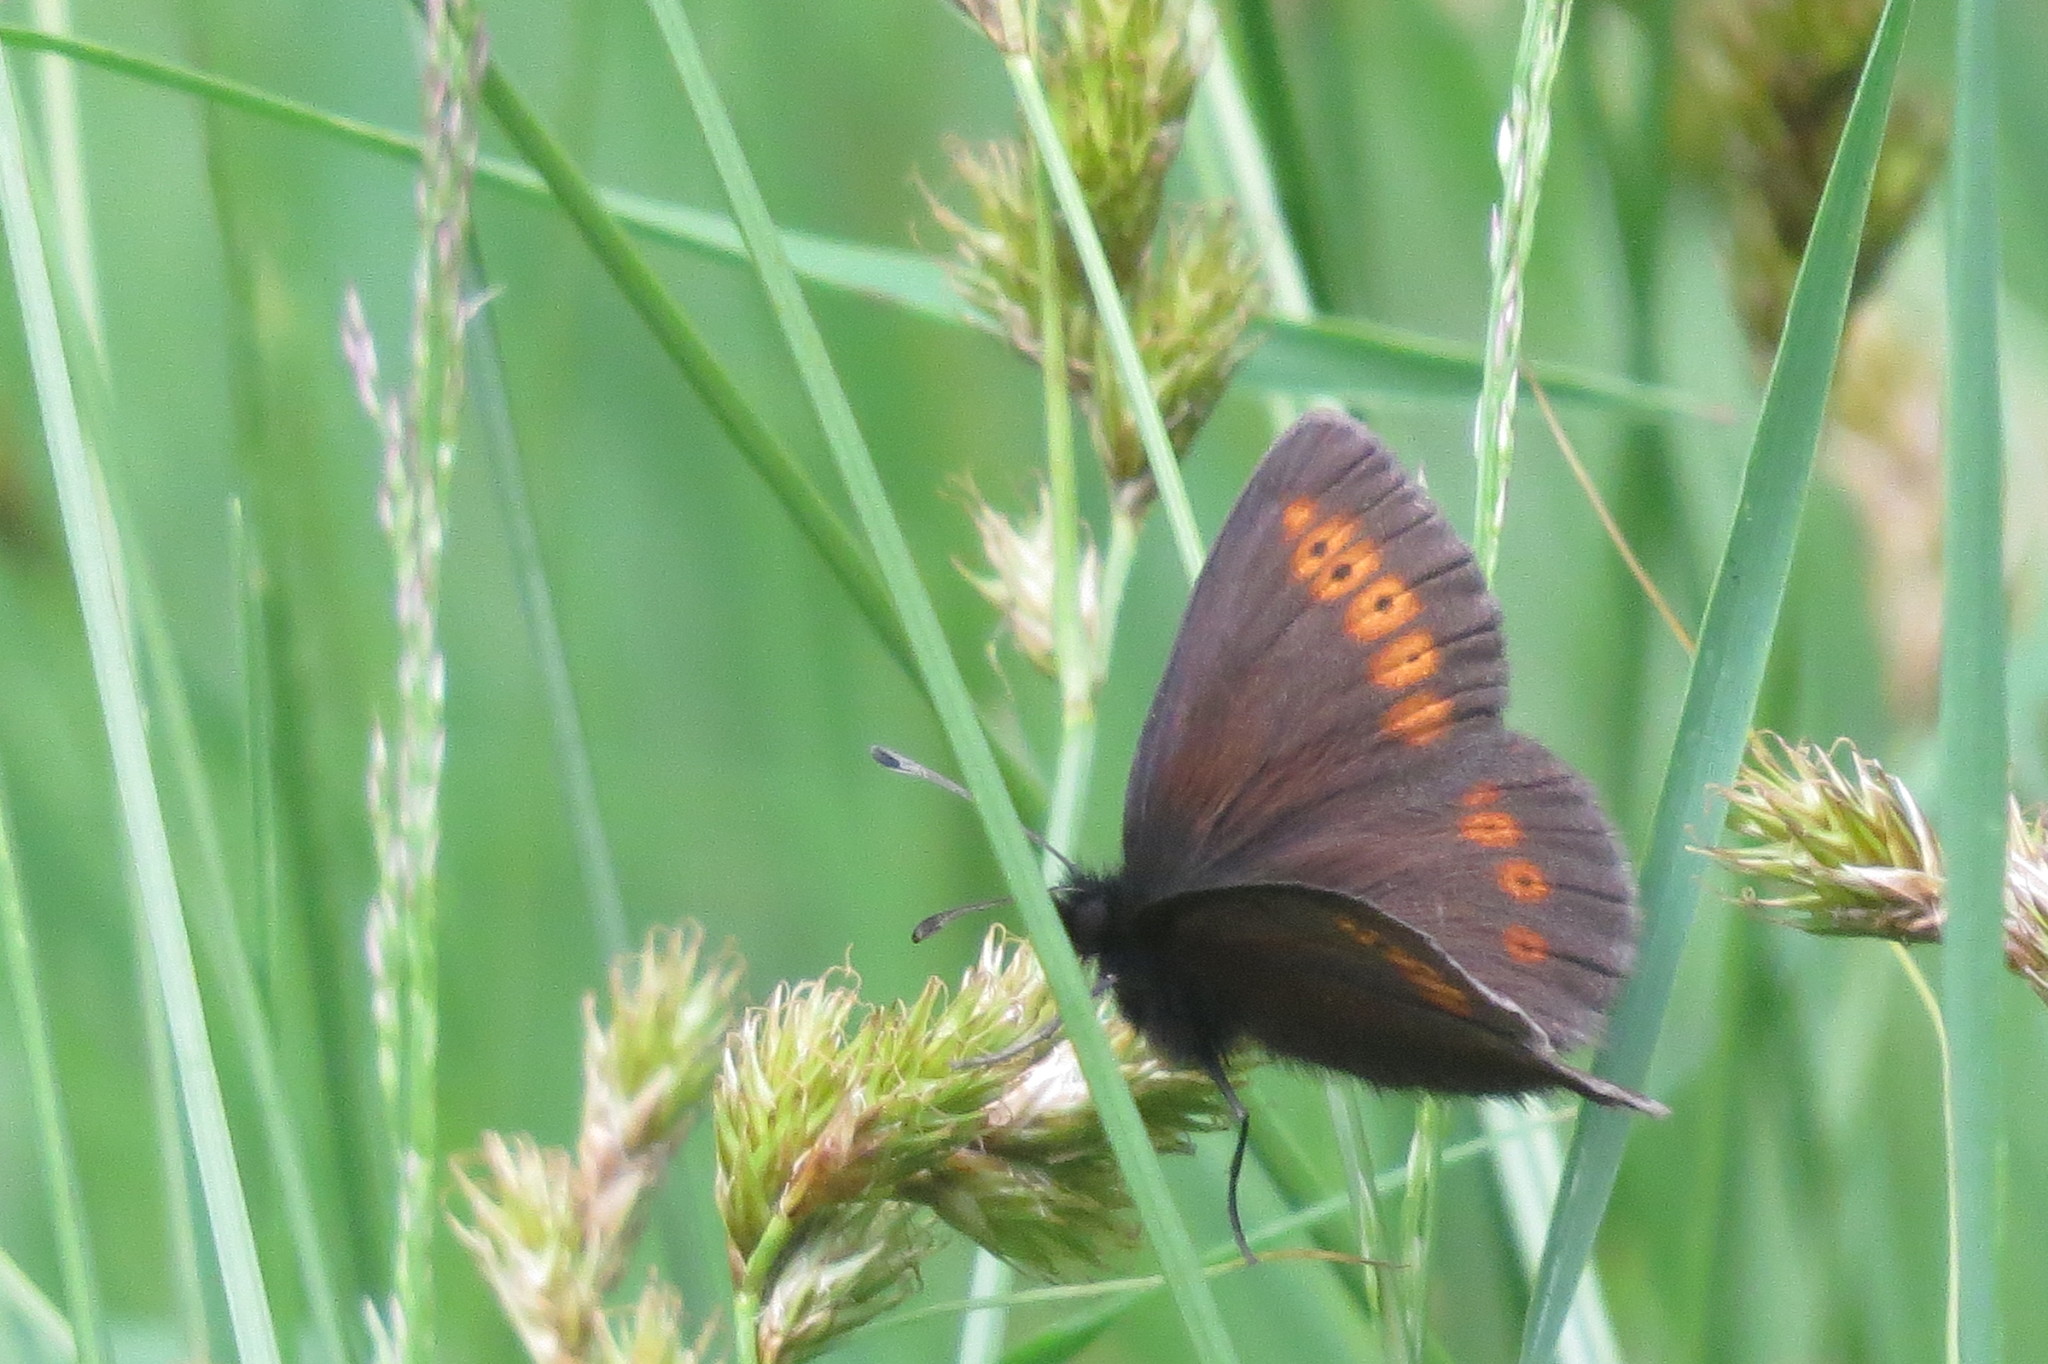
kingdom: Animalia
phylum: Arthropoda
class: Insecta
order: Lepidoptera
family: Nymphalidae
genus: Erebia
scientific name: Erebia melampus
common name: Lesser mountain ringlet
